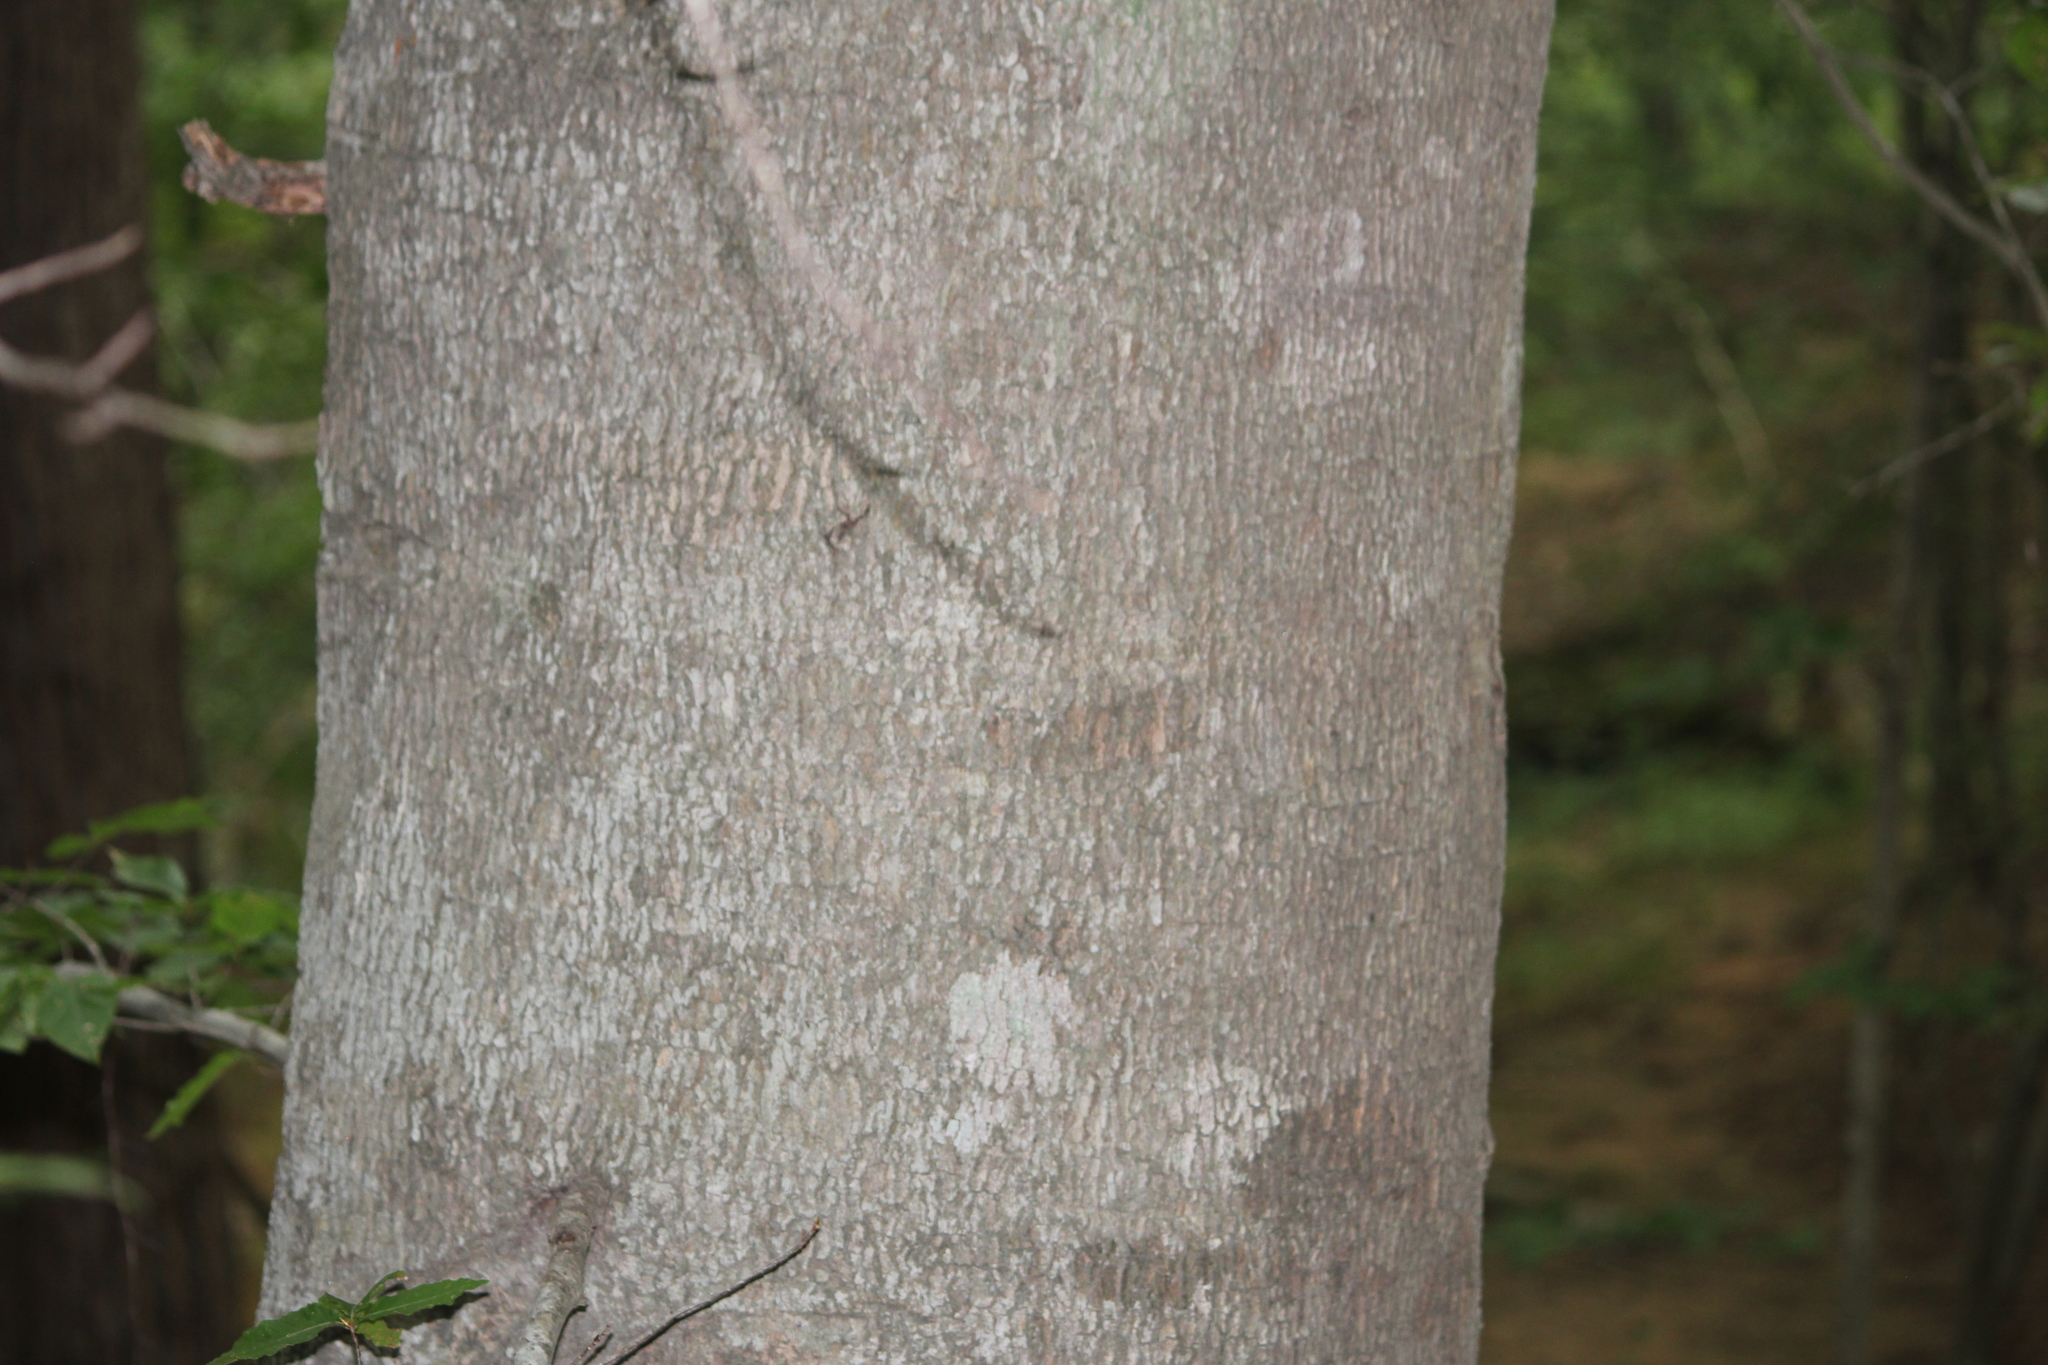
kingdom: Plantae
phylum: Tracheophyta
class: Magnoliopsida
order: Fagales
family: Fagaceae
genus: Fagus
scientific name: Fagus grandifolia
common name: American beech
